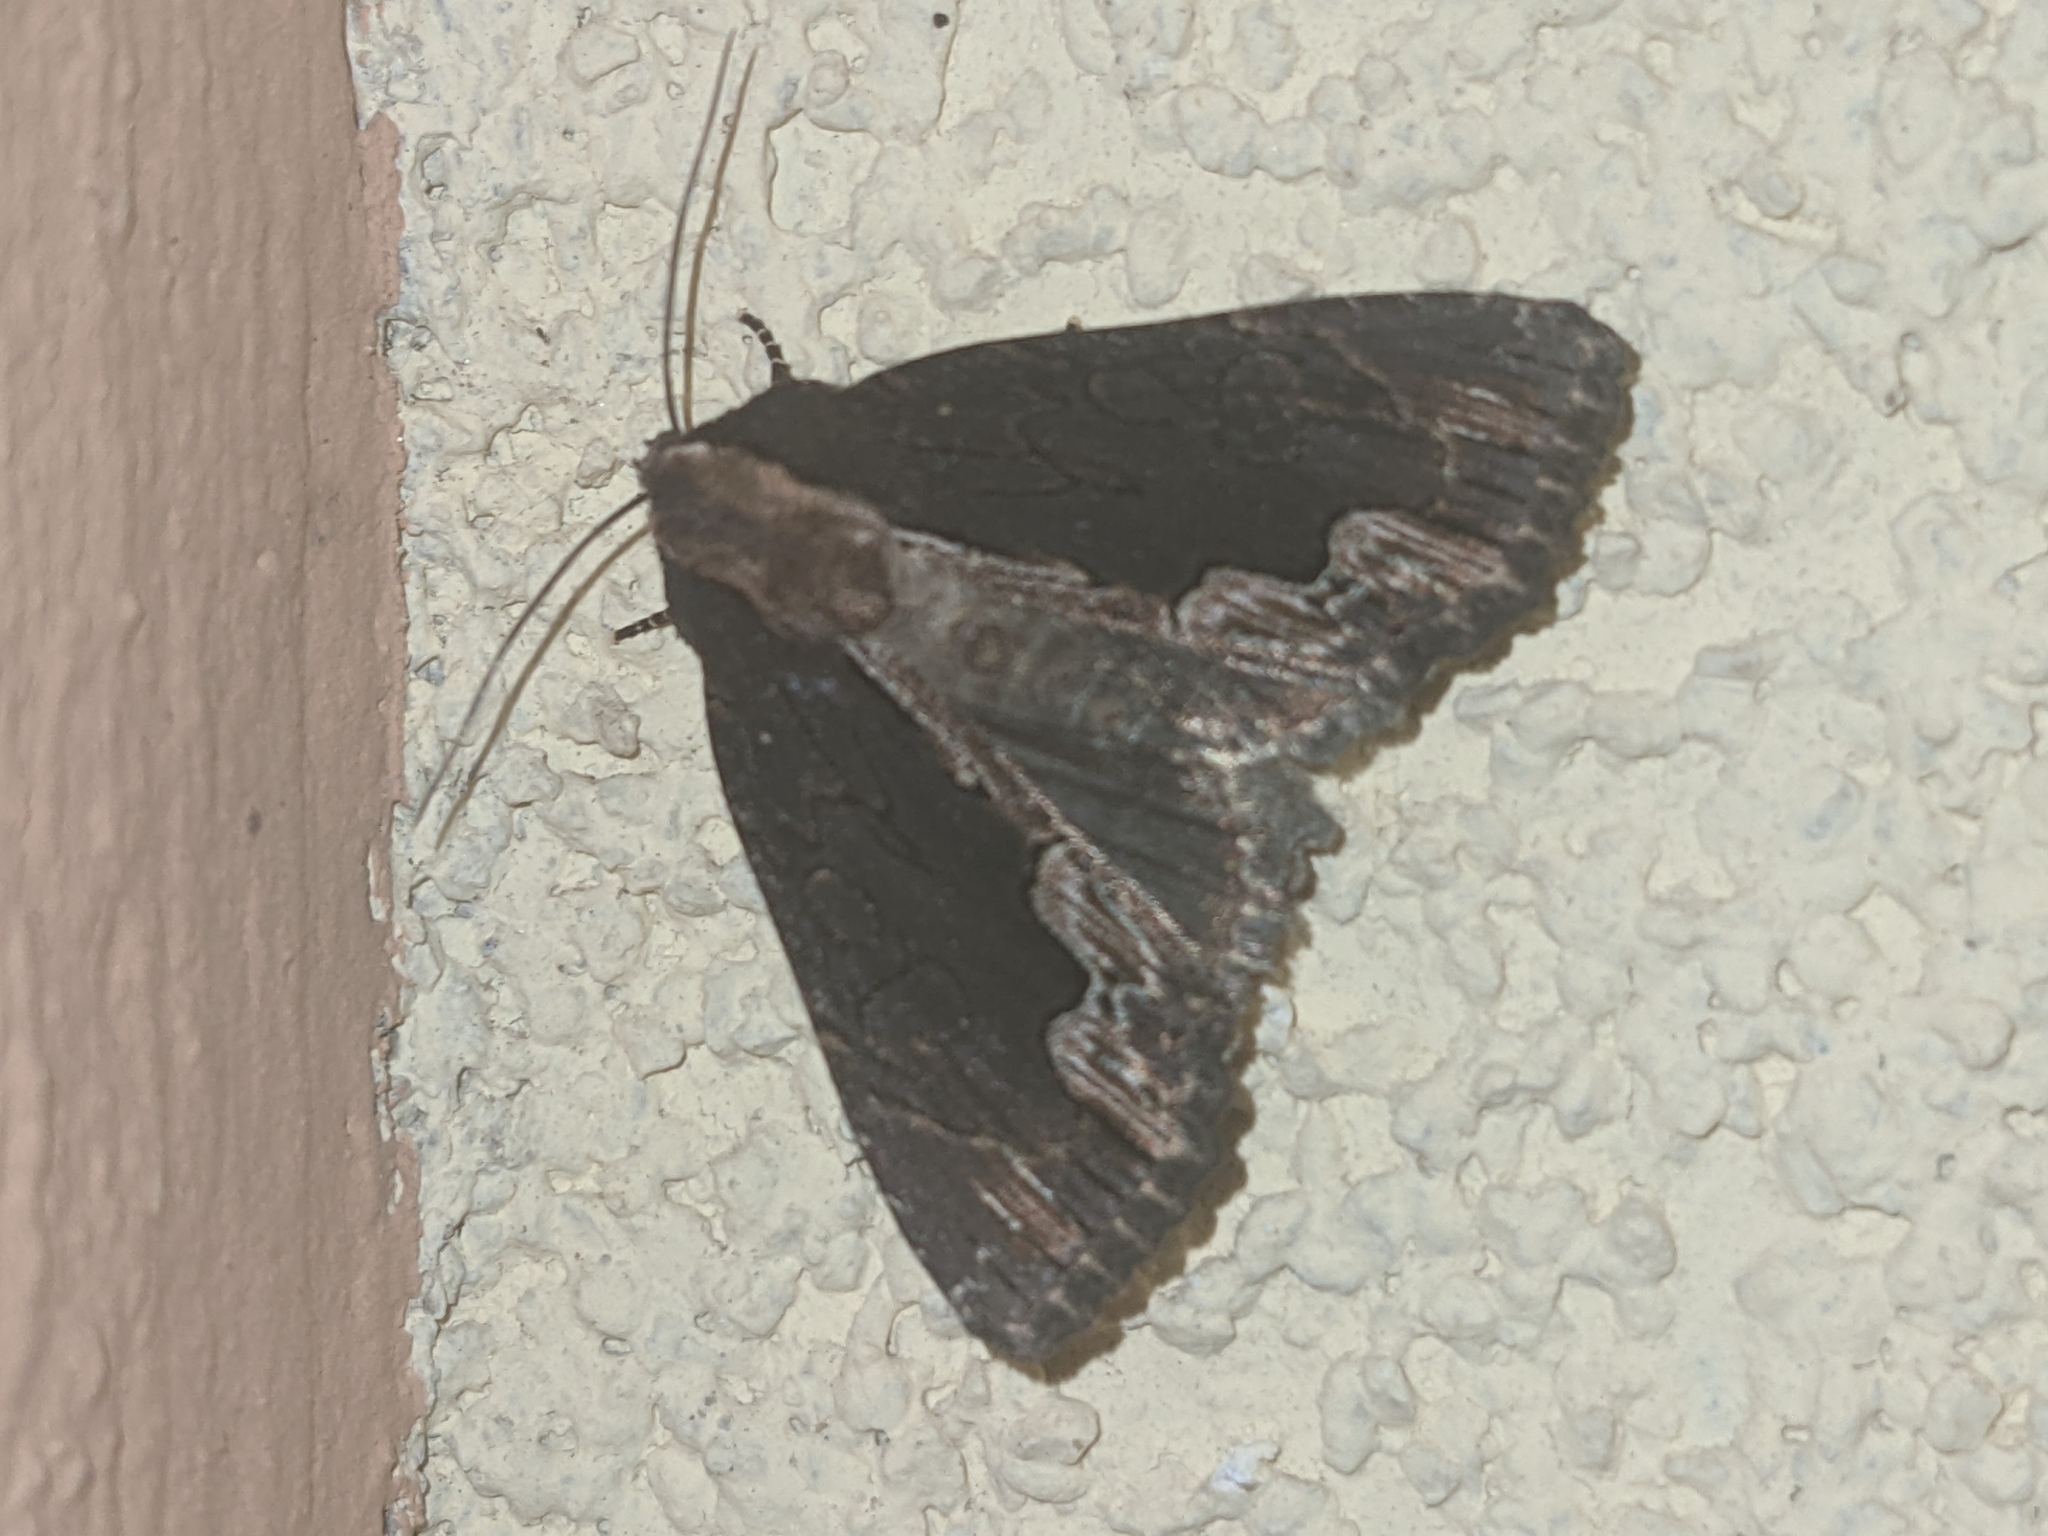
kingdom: Animalia
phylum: Arthropoda
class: Insecta
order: Lepidoptera
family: Noctuidae
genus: Dypterygia
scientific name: Dypterygia scabriuscula
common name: Bird's wing
